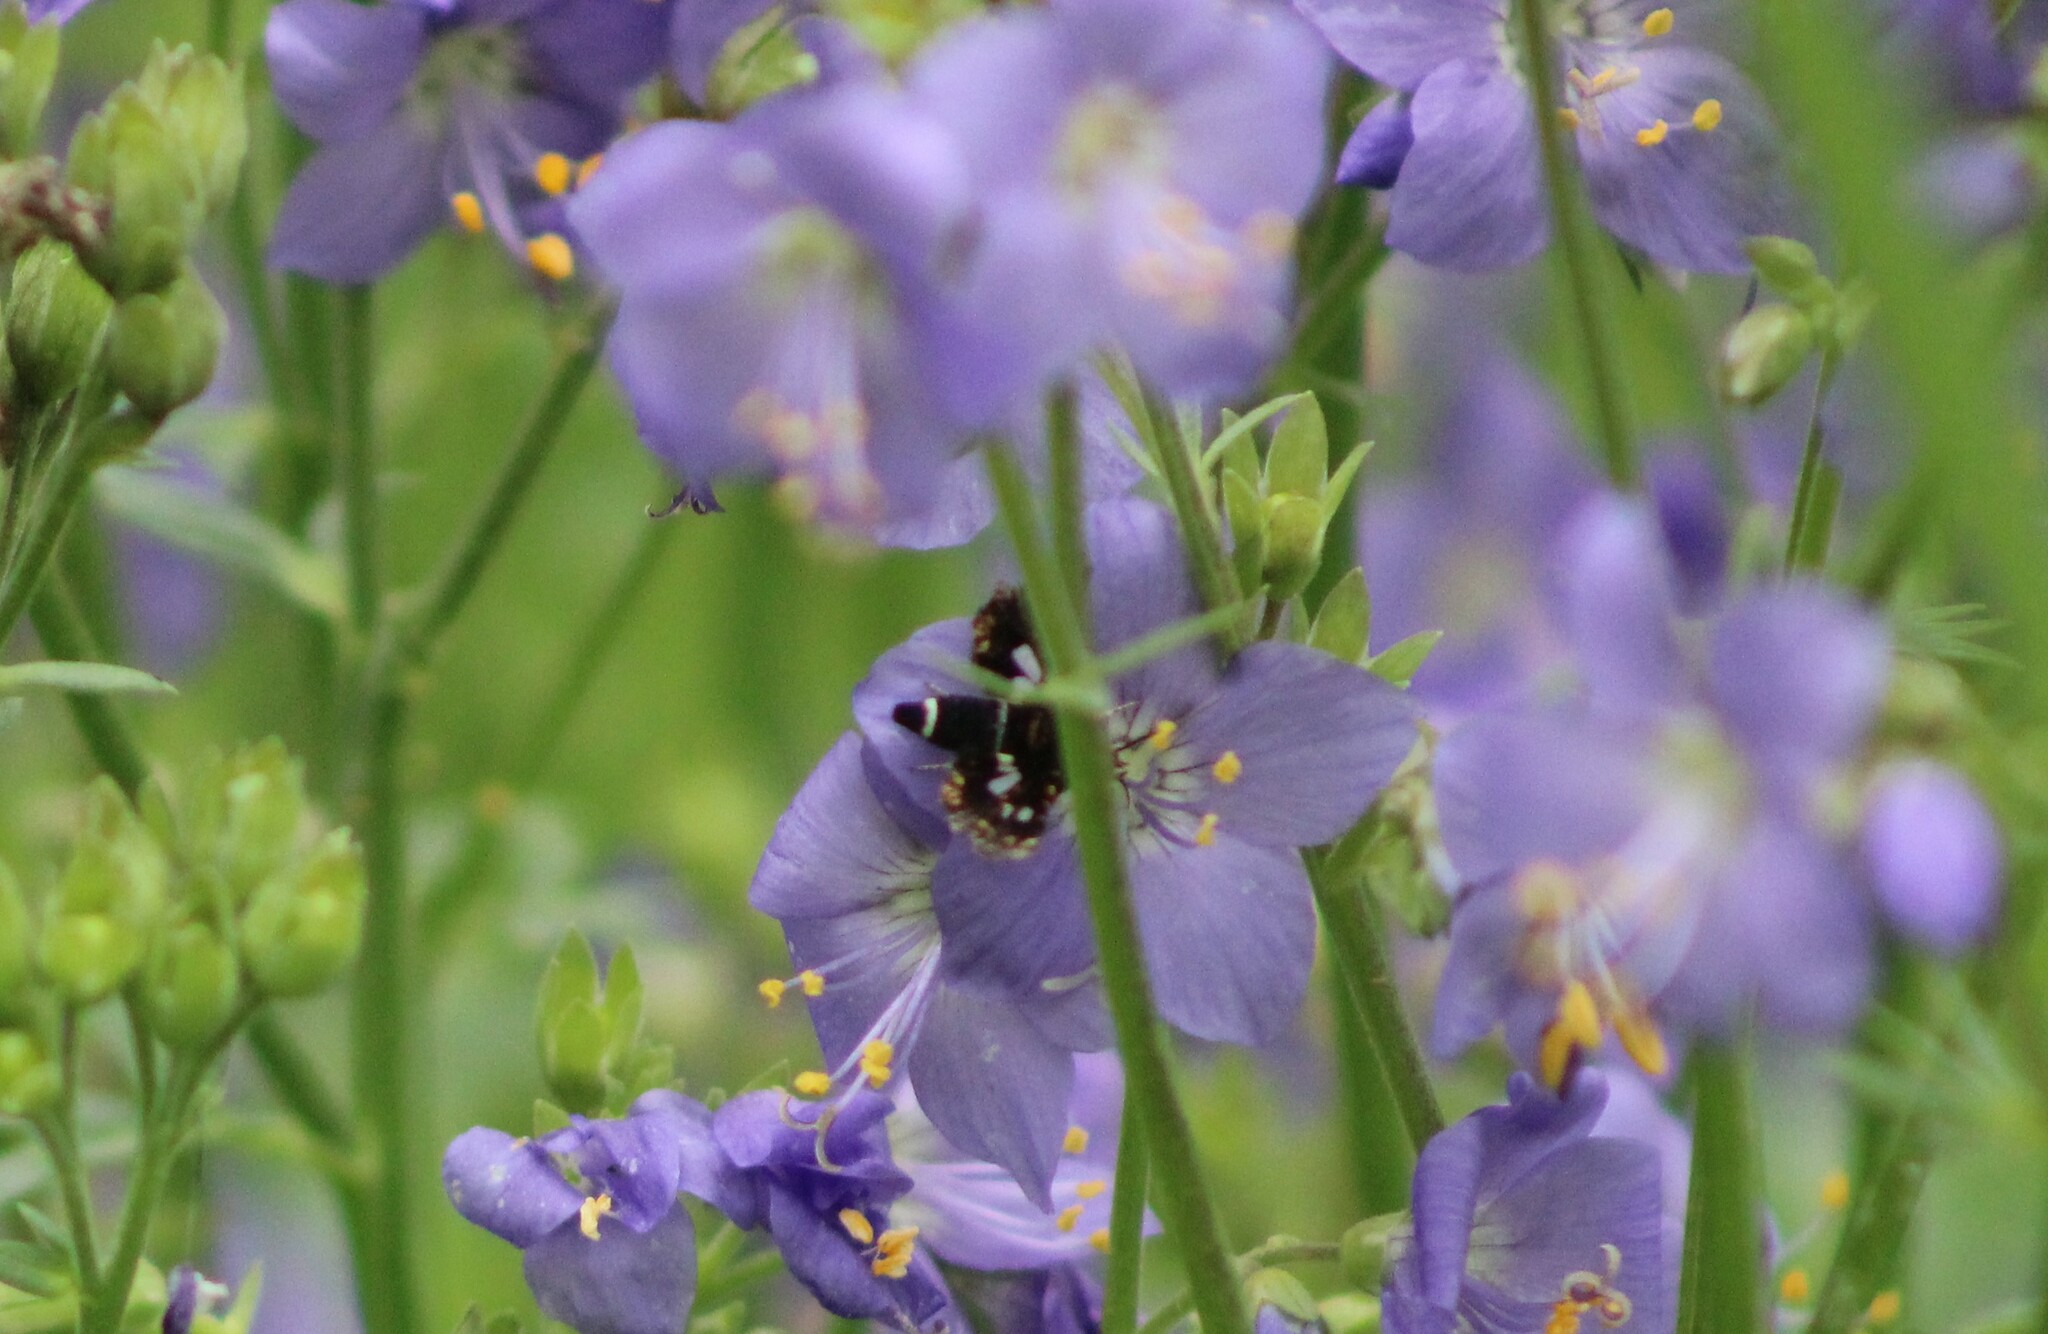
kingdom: Animalia
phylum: Arthropoda
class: Insecta
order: Lepidoptera
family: Thyrididae
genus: Thyris
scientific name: Thyris fenestrella
